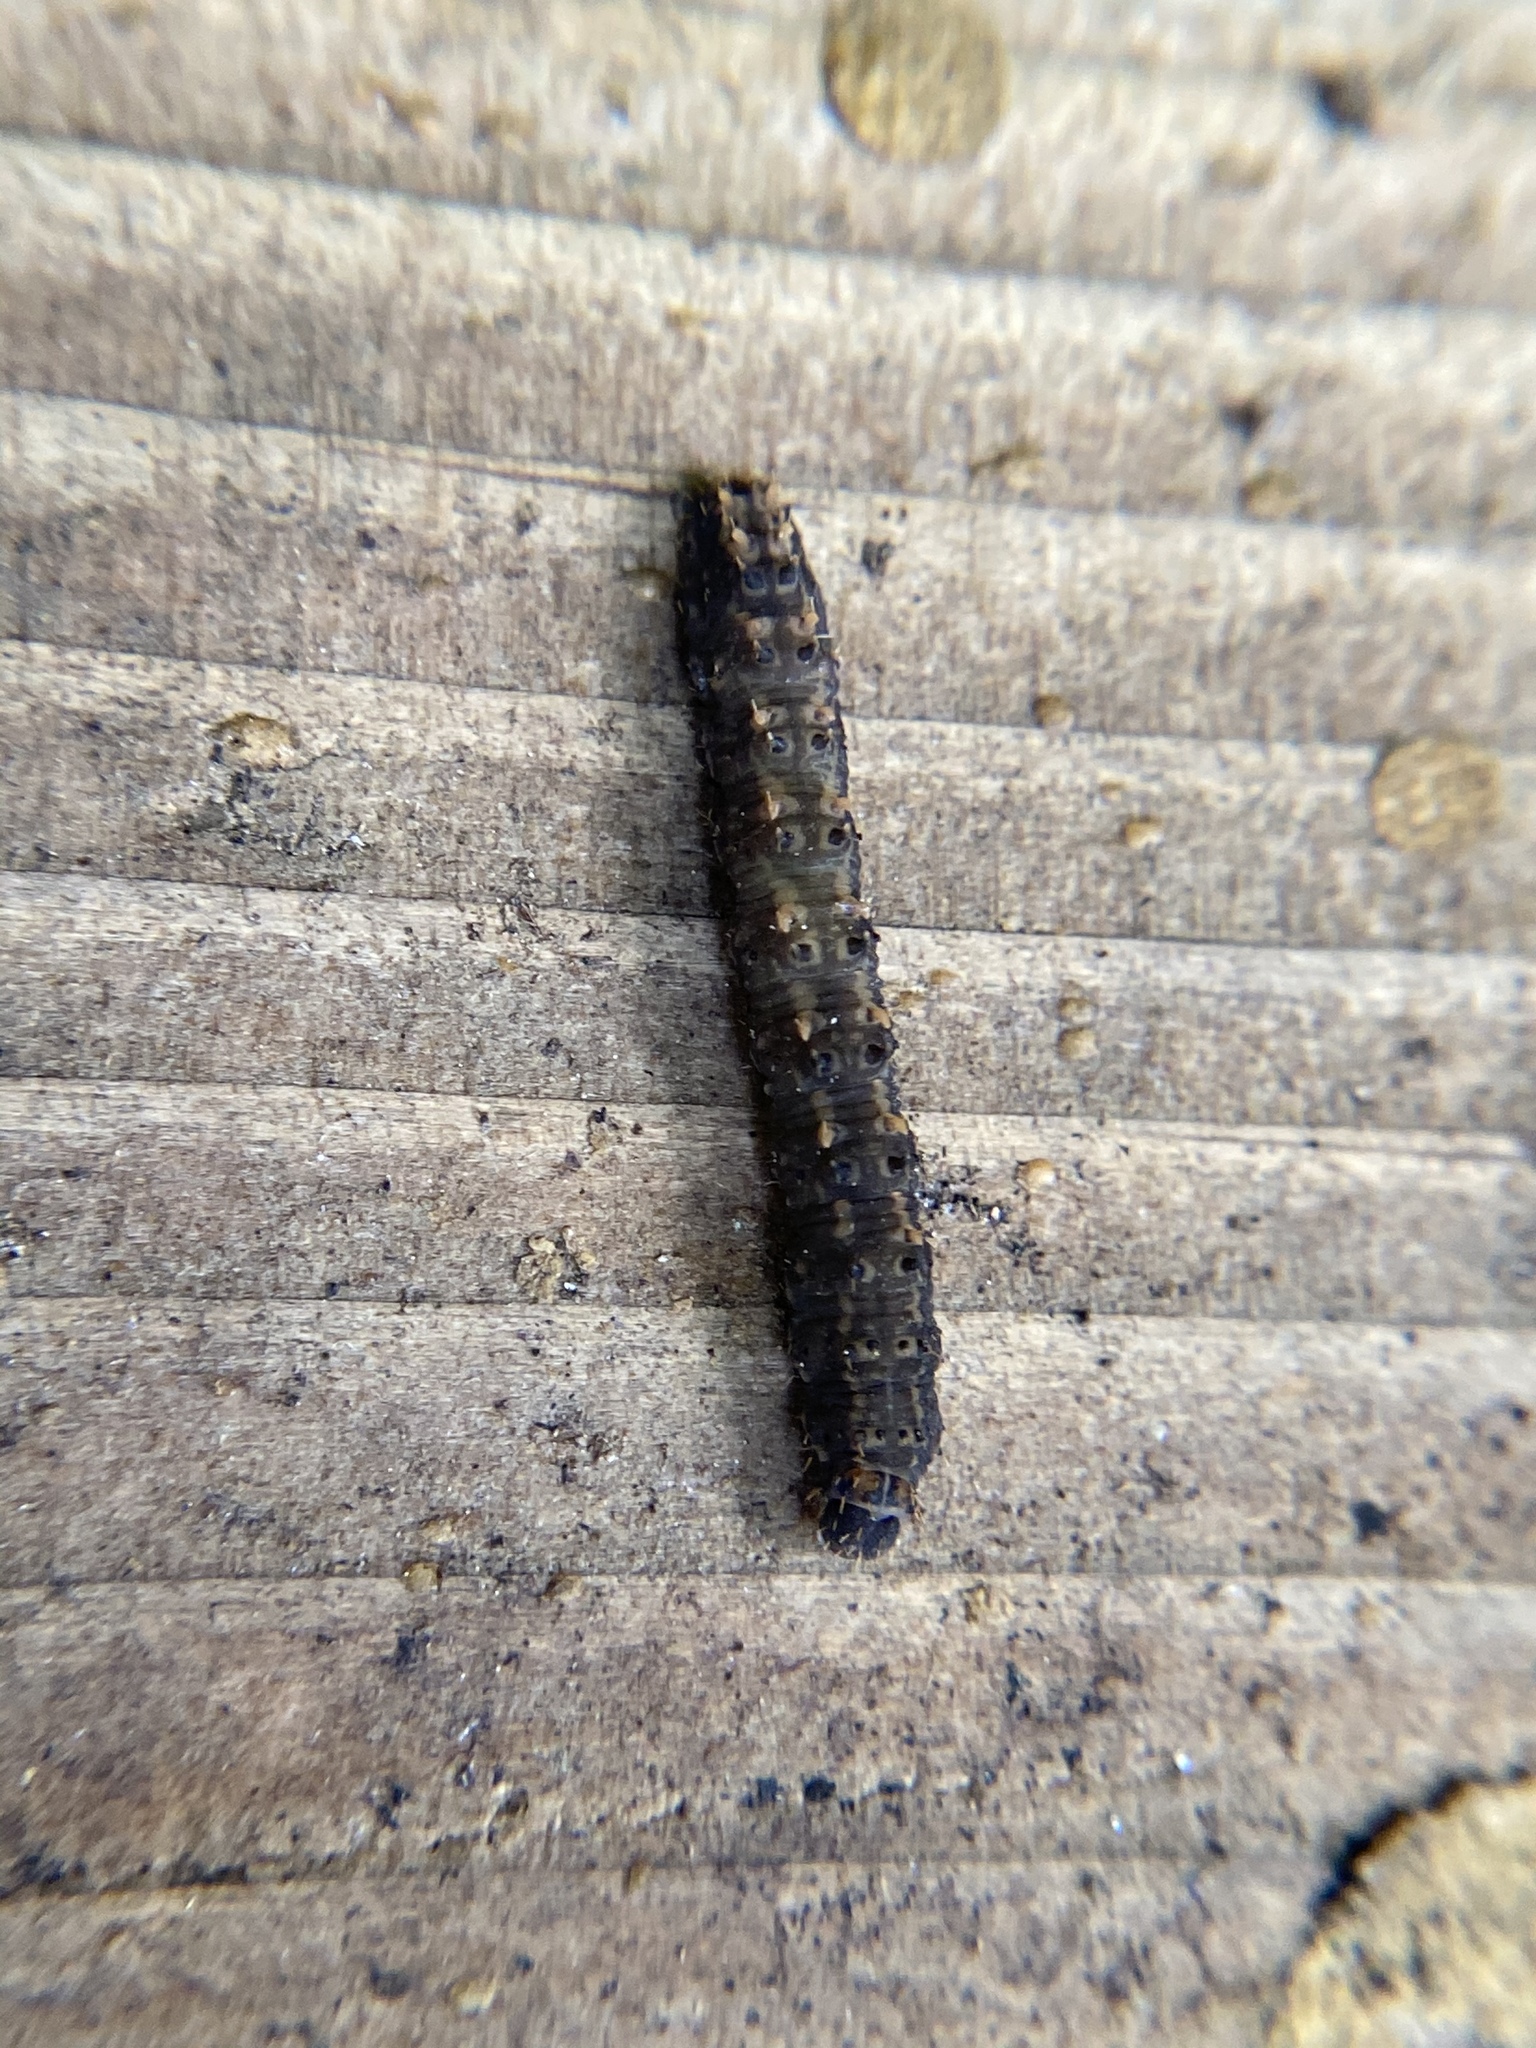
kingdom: Animalia
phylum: Arthropoda
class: Insecta
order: Lepidoptera
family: Erebidae
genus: Idia
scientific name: Idia lubricalis
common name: Twin-striped tabby
